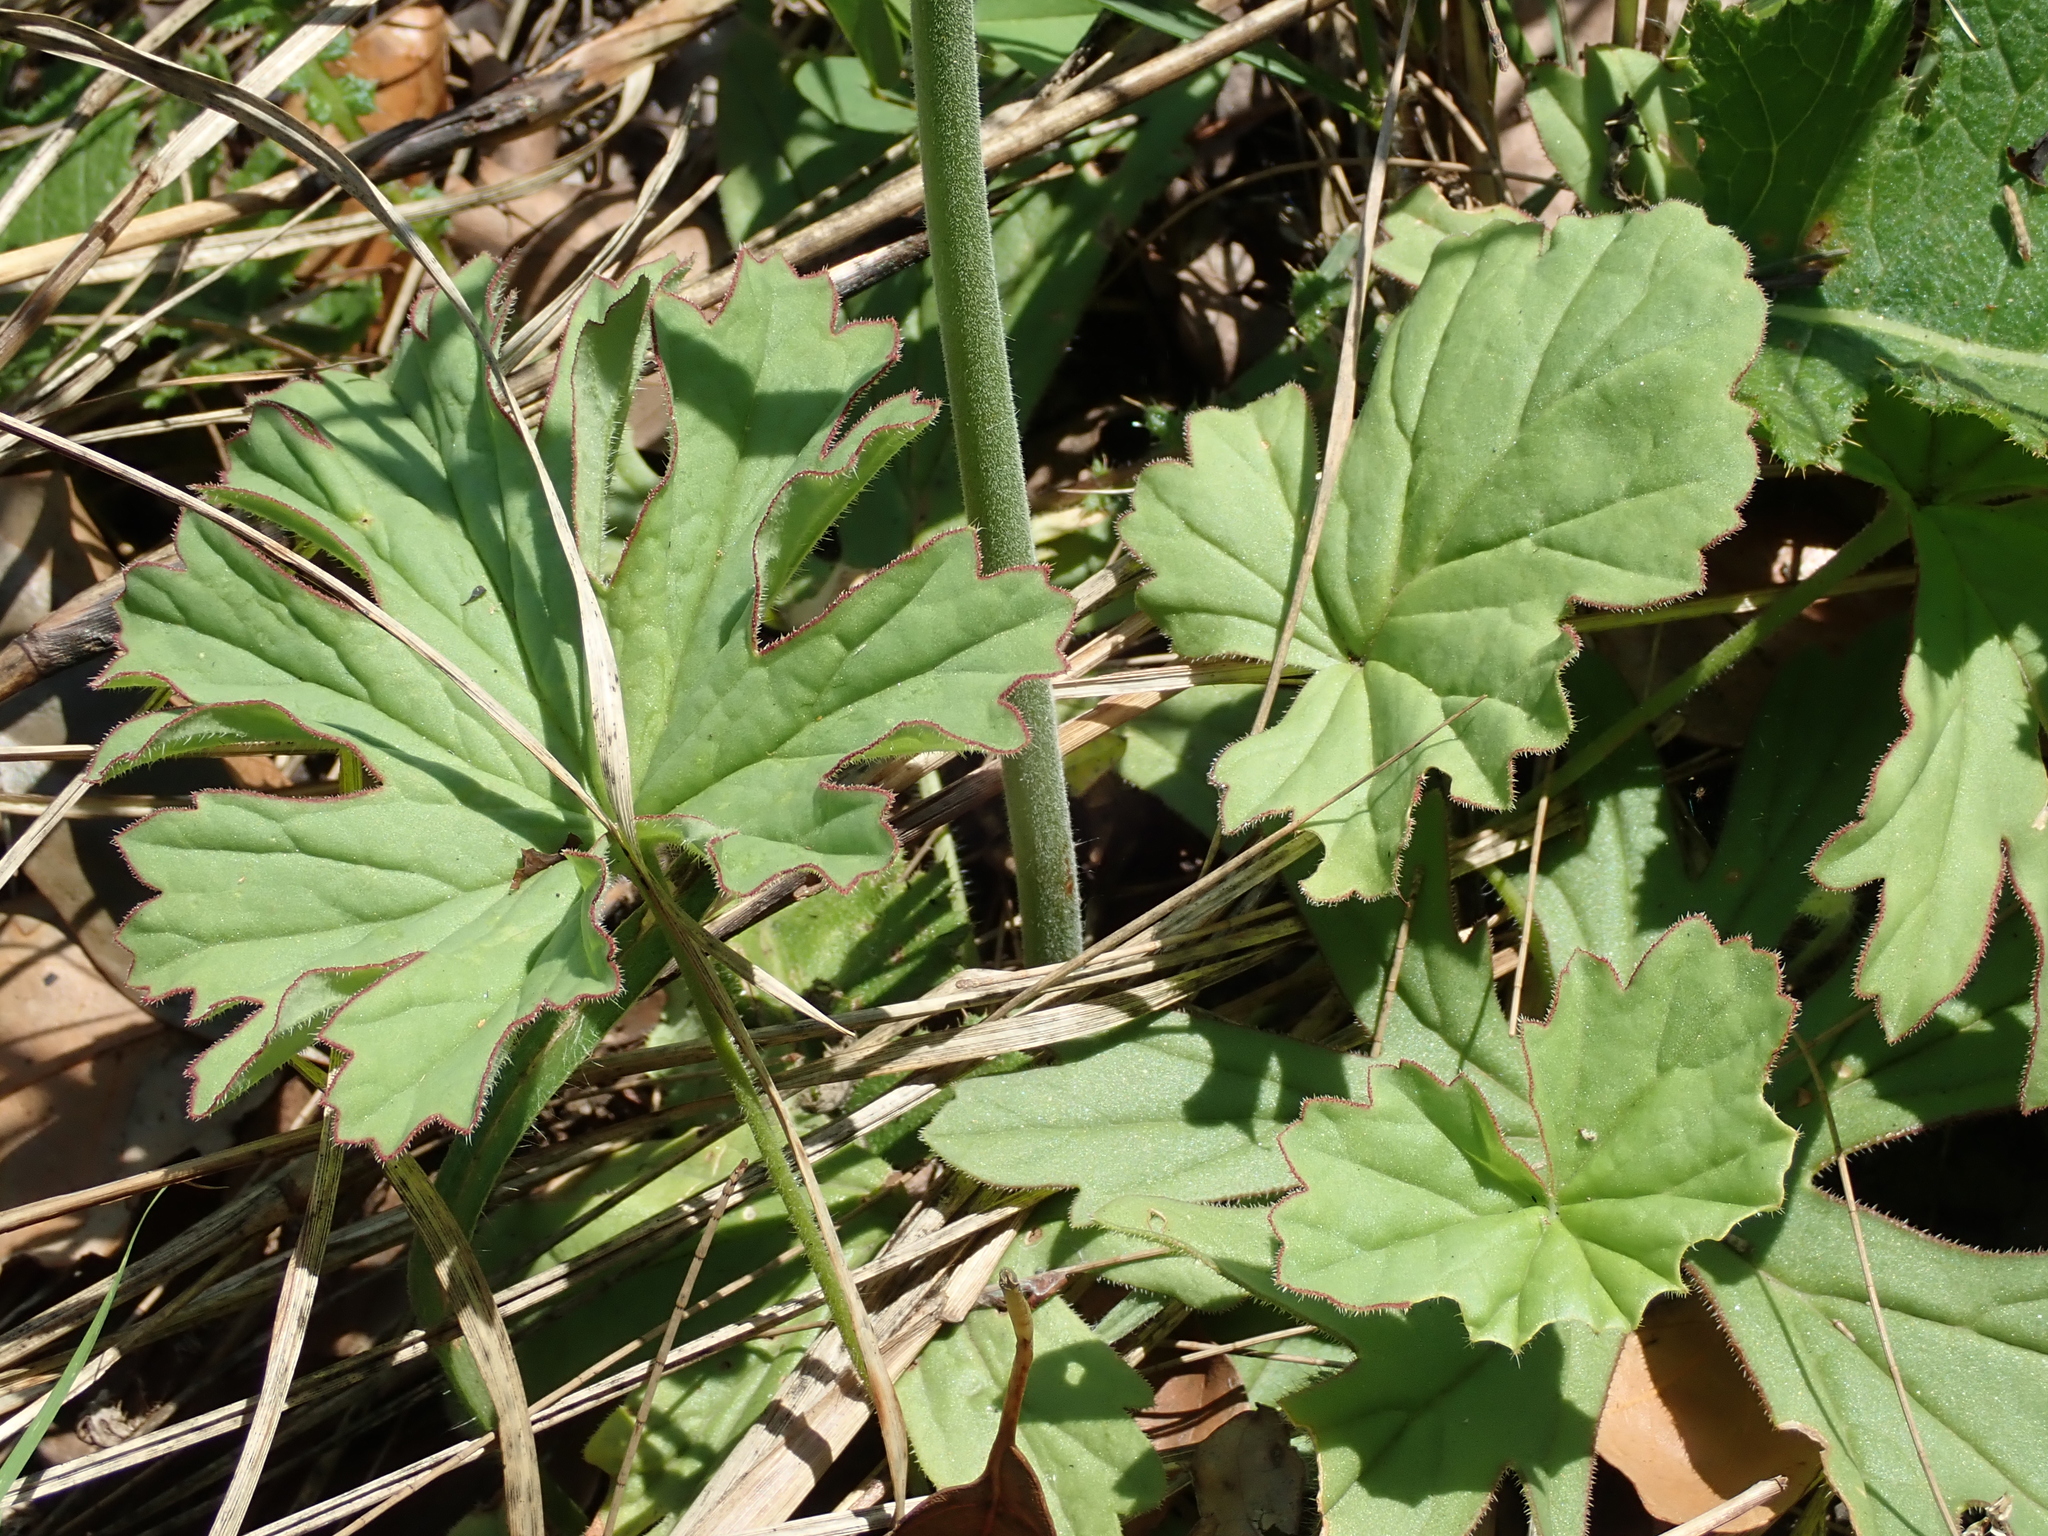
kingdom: Plantae
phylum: Tracheophyta
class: Magnoliopsida
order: Geraniales
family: Geraniaceae
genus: Pelargonium
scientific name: Pelargonium luridum
